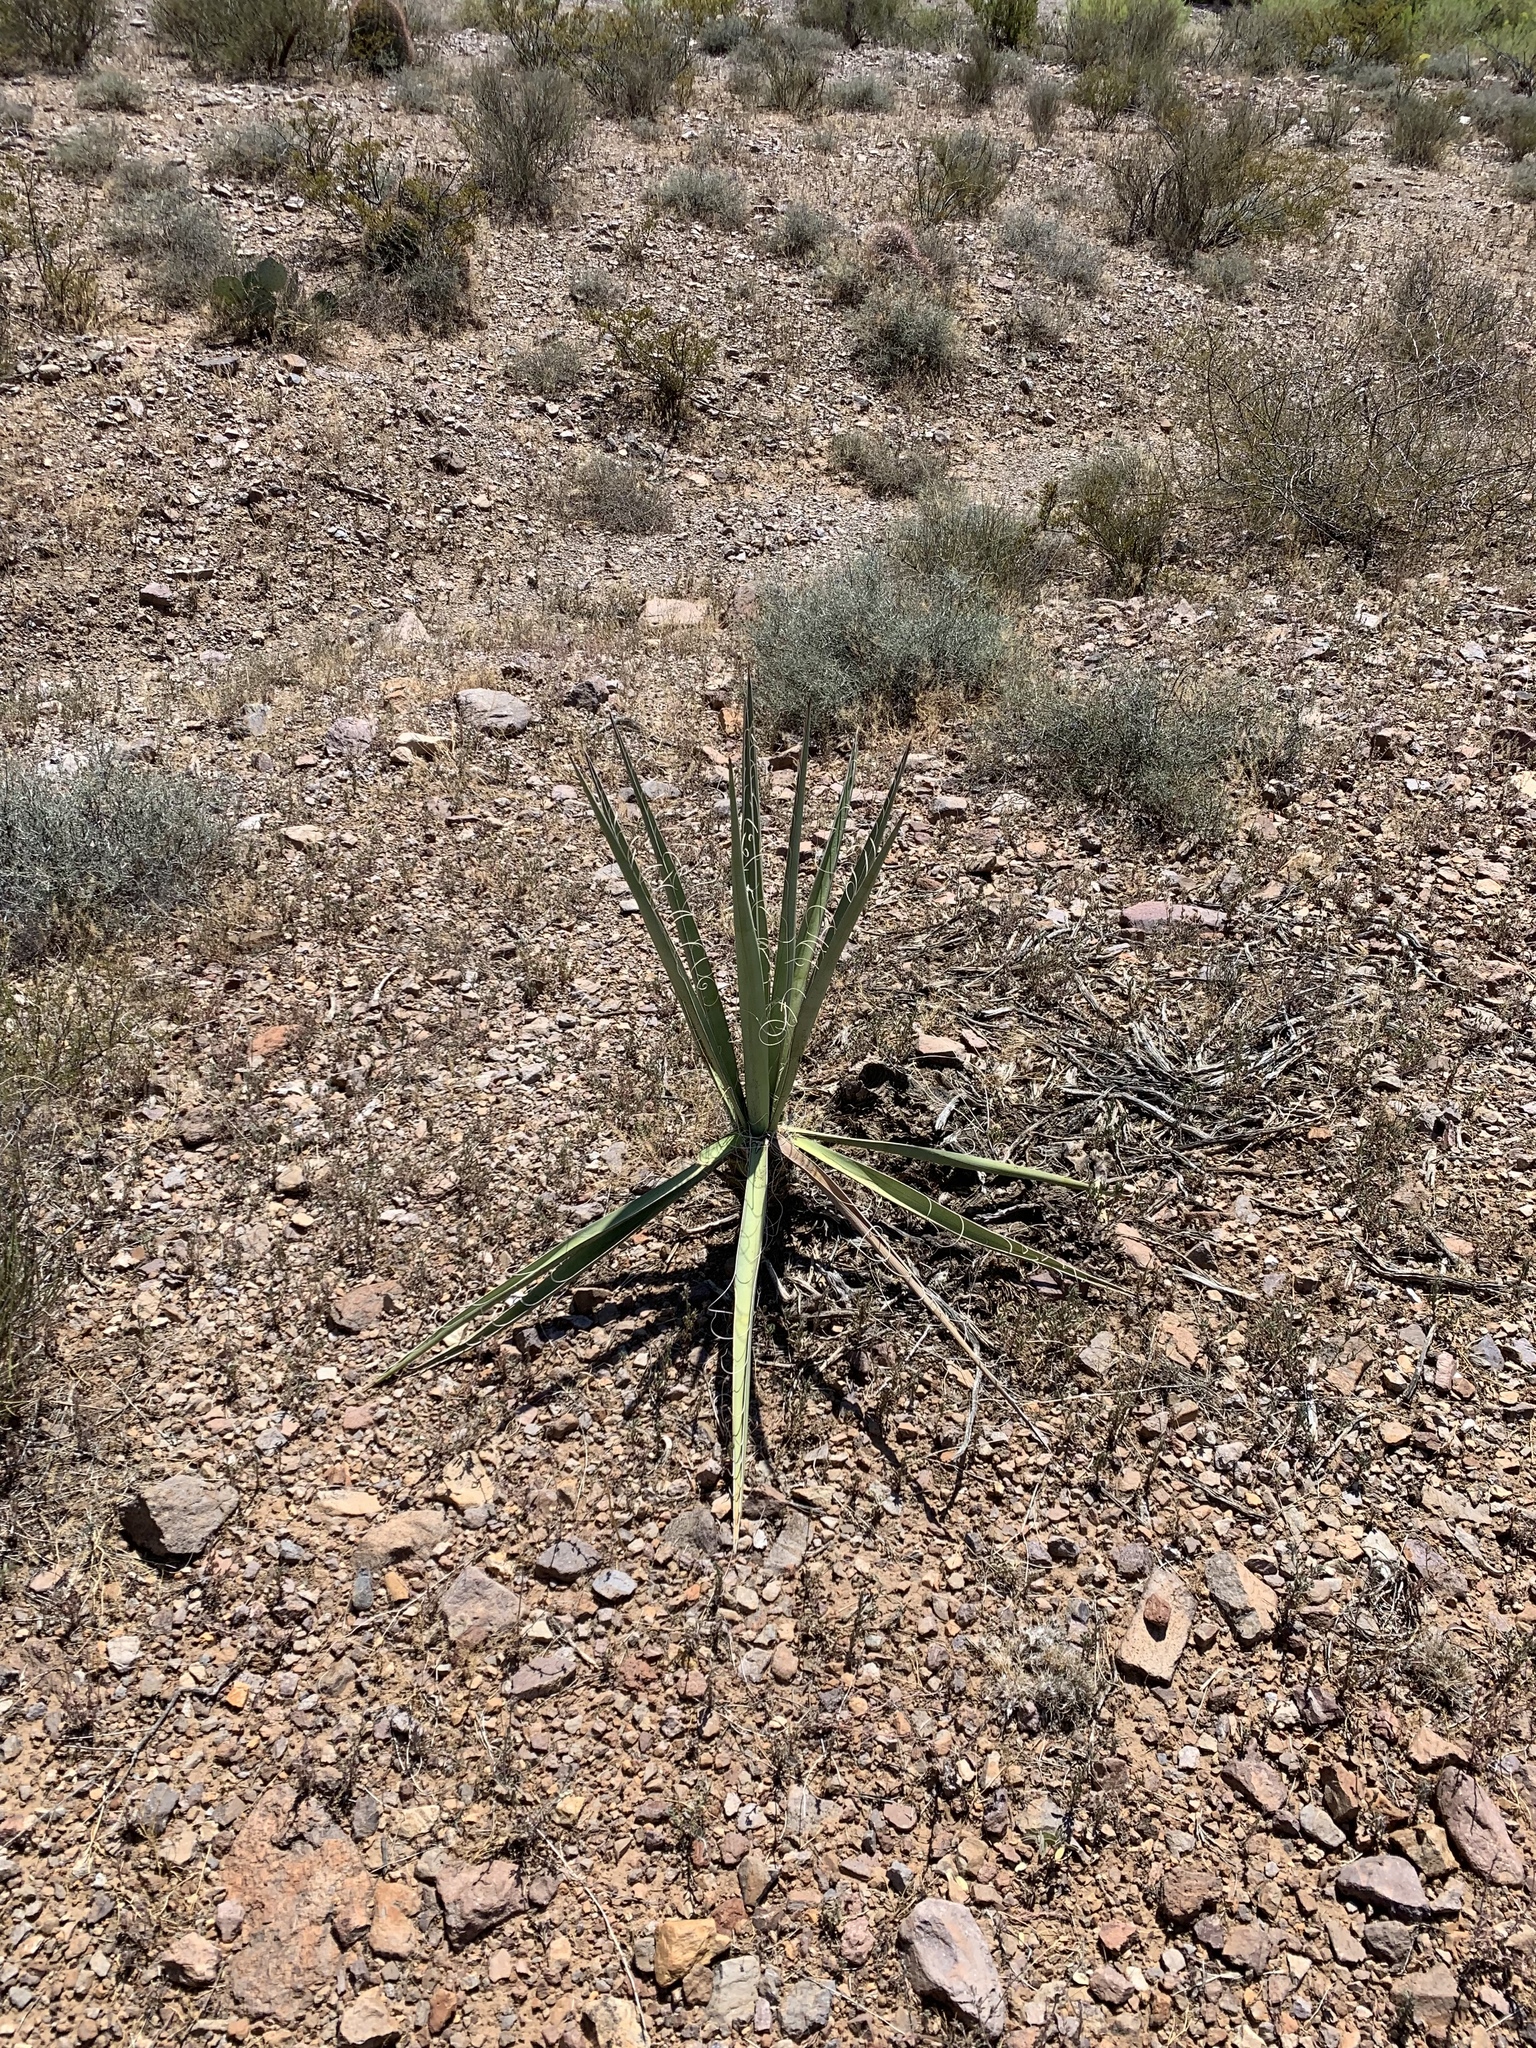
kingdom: Plantae
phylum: Tracheophyta
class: Liliopsida
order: Asparagales
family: Asparagaceae
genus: Yucca
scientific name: Yucca baccata
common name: Banana yucca
